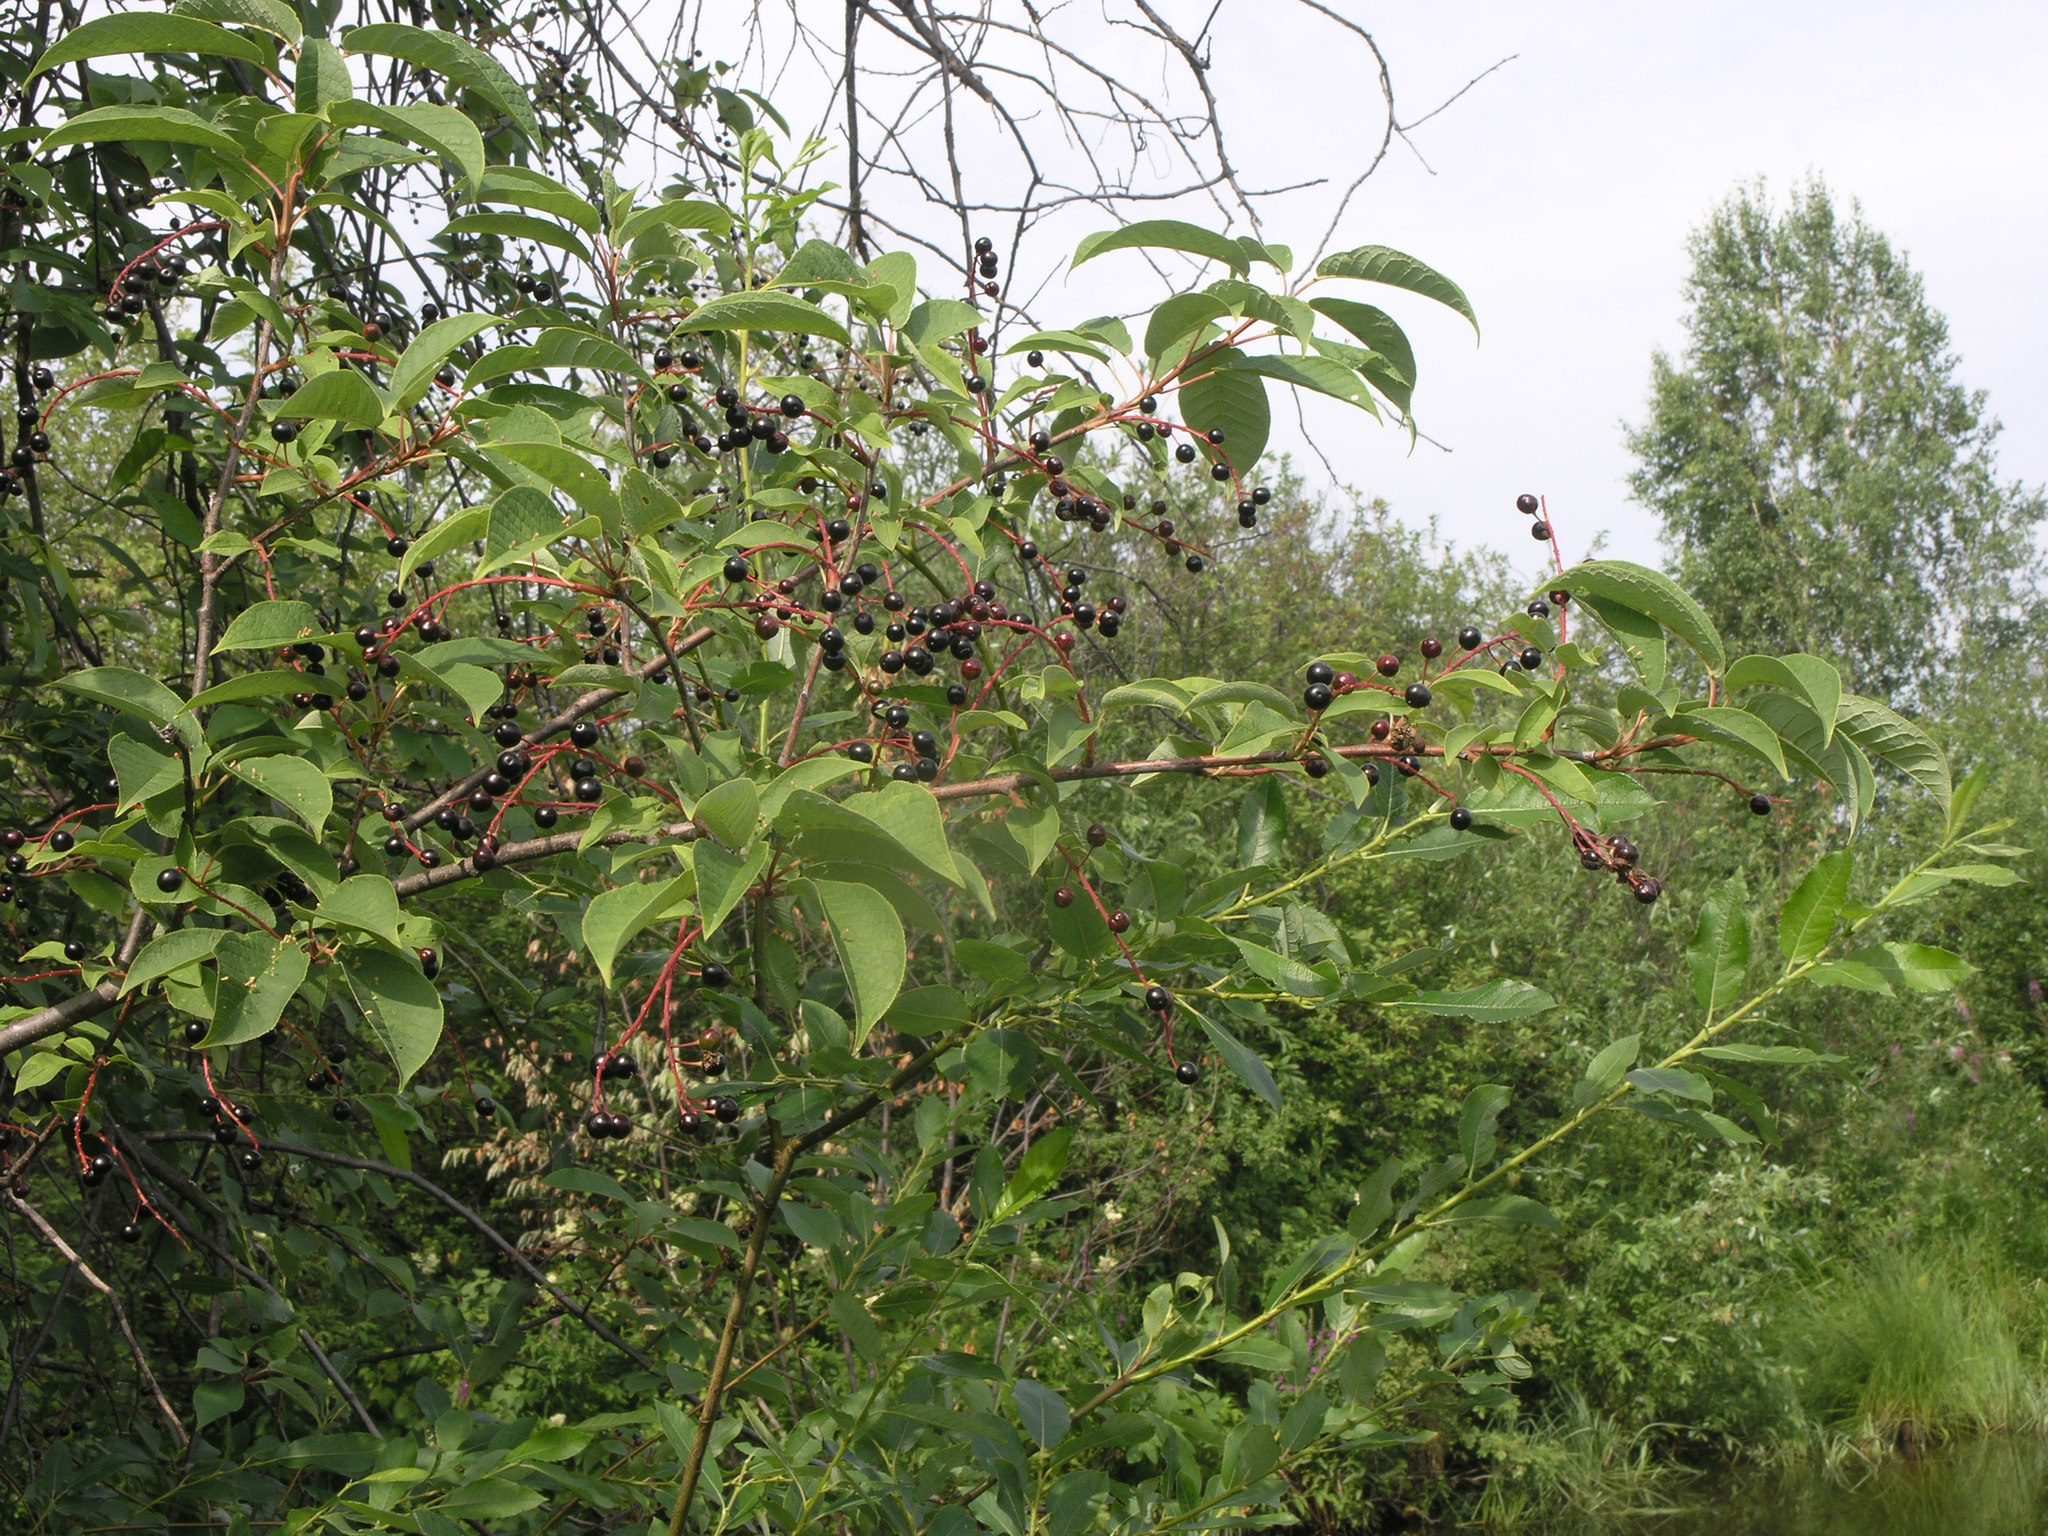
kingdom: Plantae
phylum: Tracheophyta
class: Magnoliopsida
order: Rosales
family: Rosaceae
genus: Prunus
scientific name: Prunus padus
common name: Bird cherry
